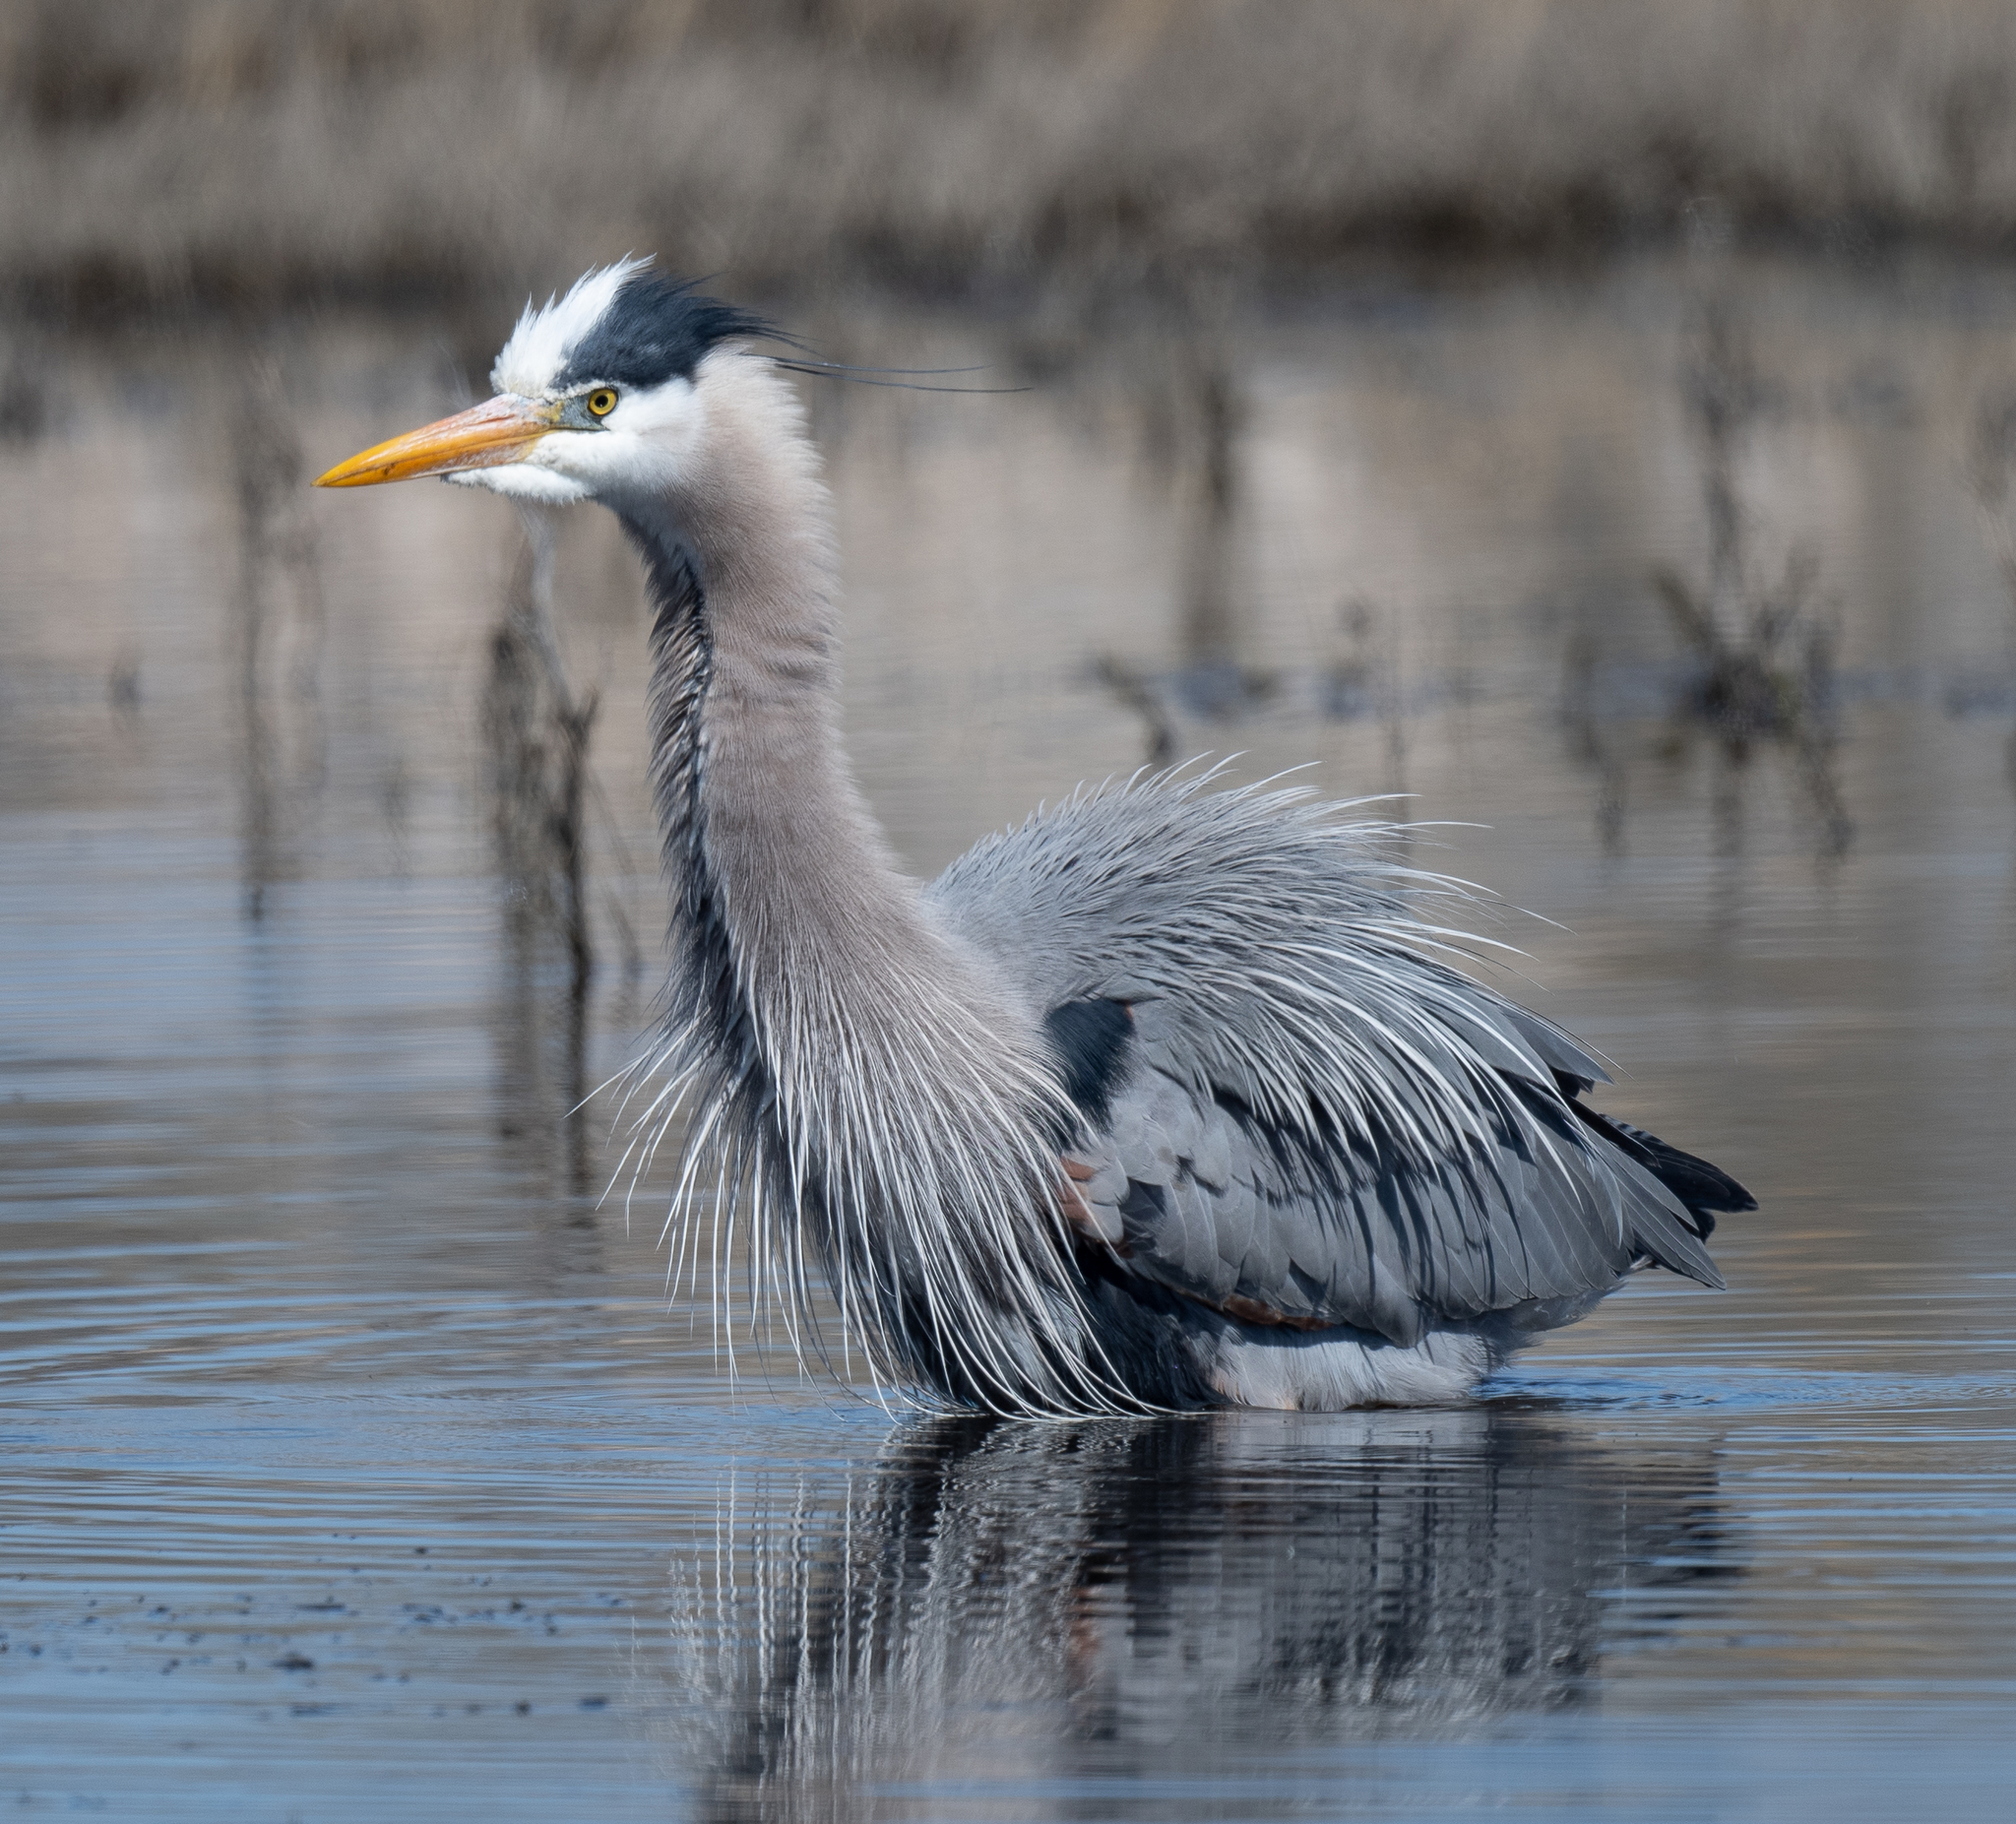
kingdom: Animalia
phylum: Chordata
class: Aves
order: Pelecaniformes
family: Ardeidae
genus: Ardea
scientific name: Ardea herodias
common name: Great blue heron
